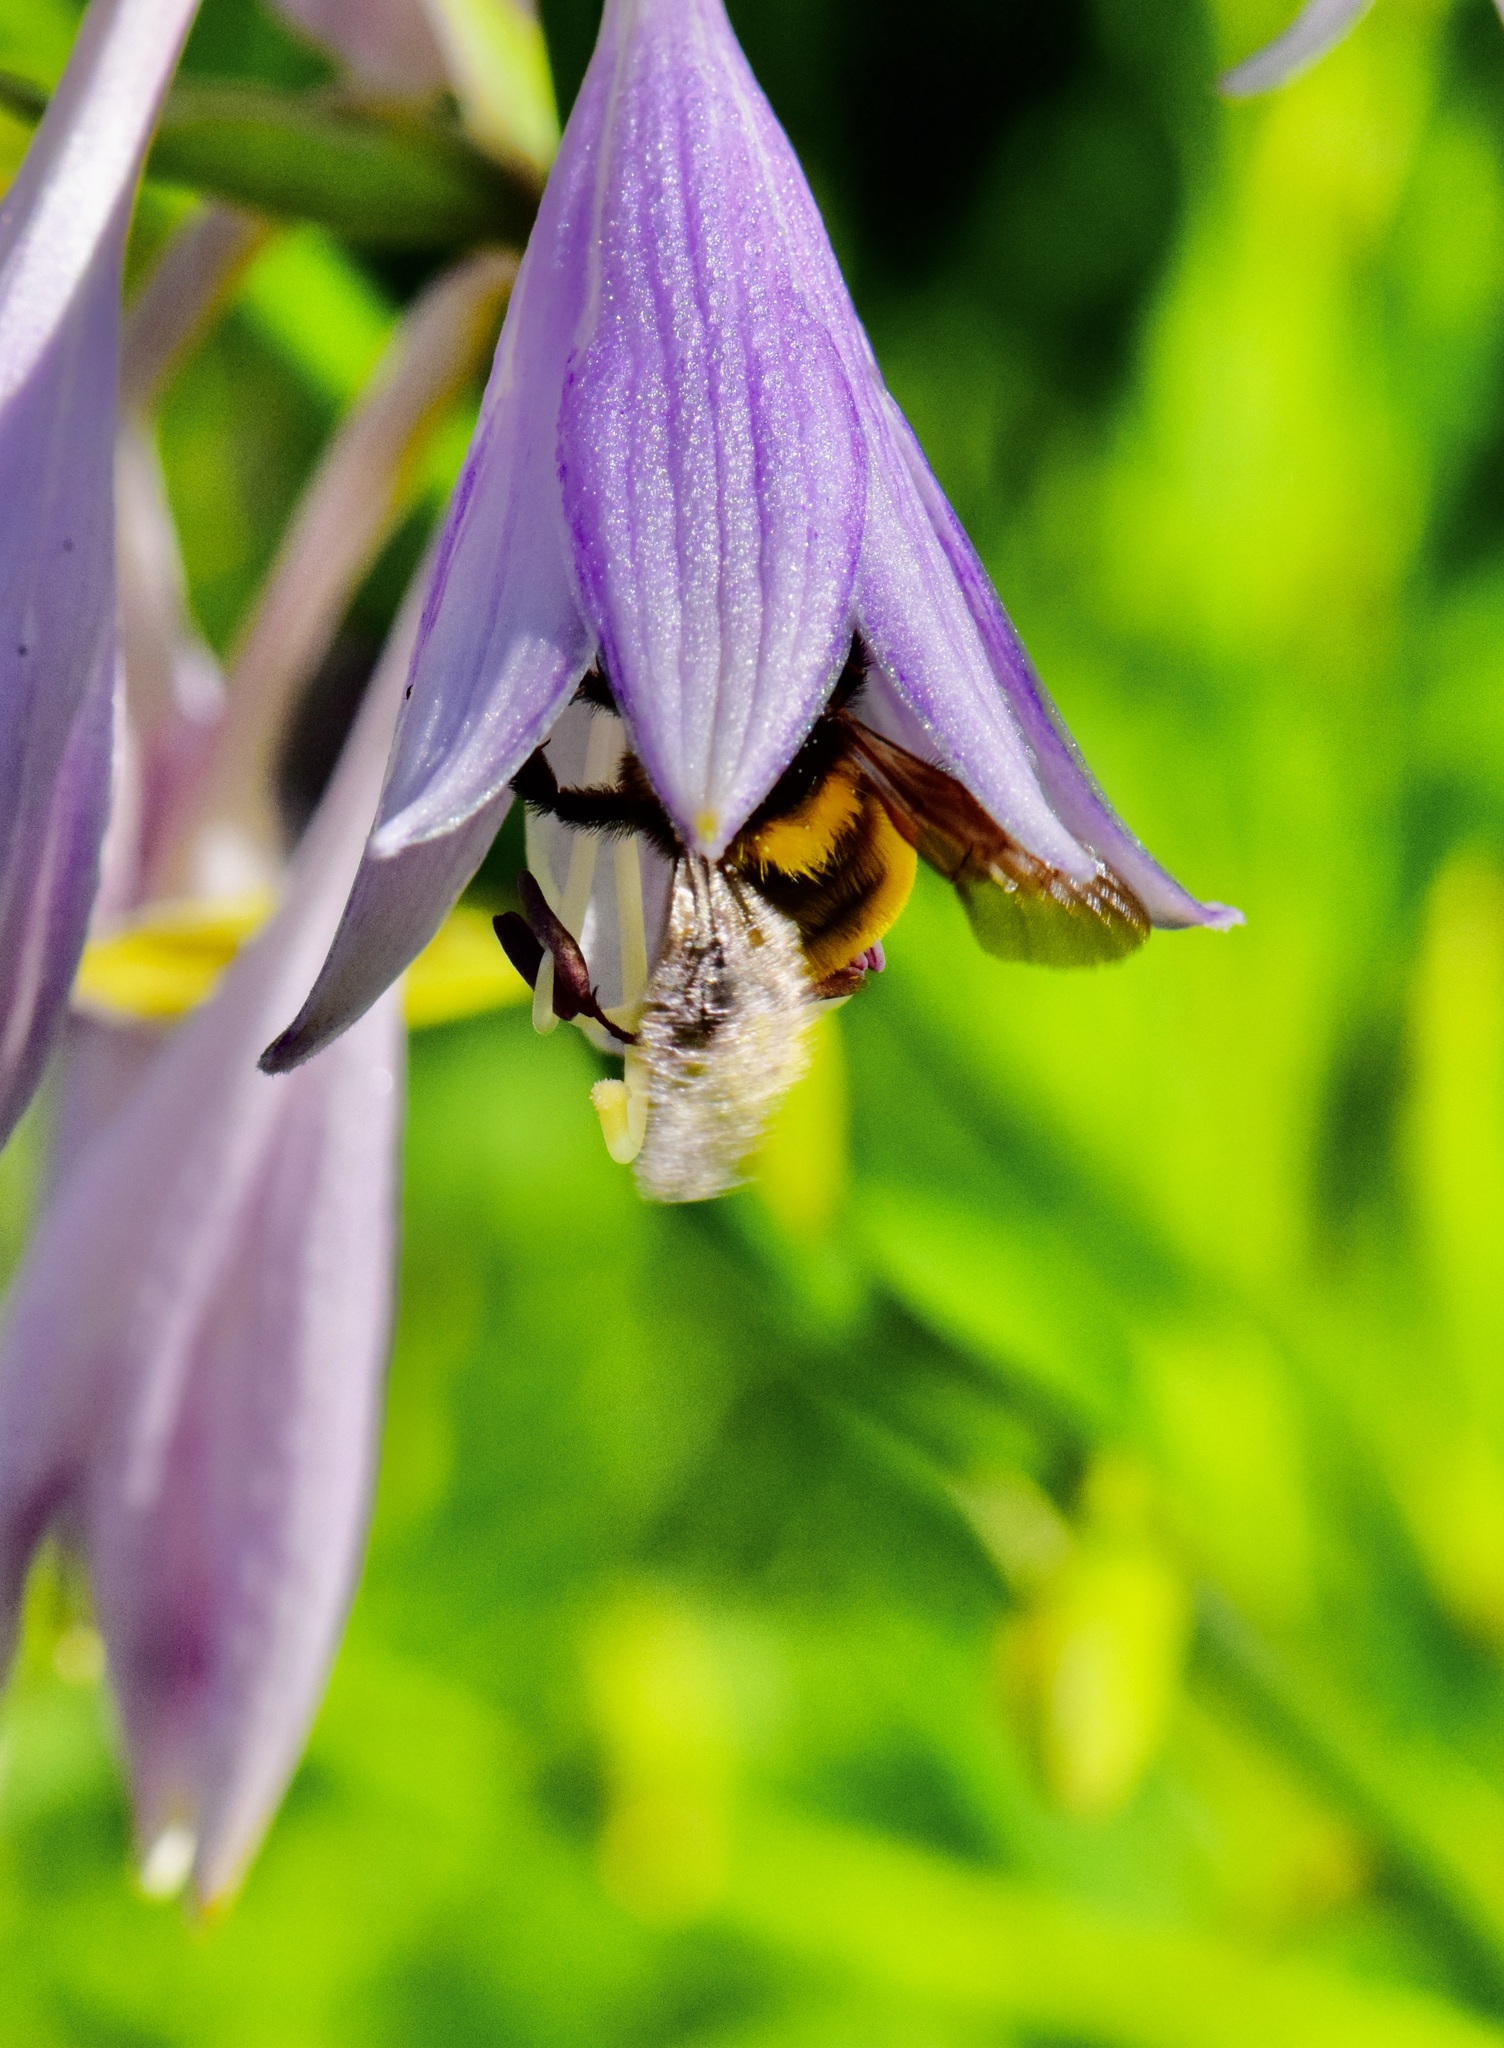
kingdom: Animalia
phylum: Arthropoda
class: Insecta
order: Hymenoptera
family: Apidae
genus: Bombus
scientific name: Bombus borealis
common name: Northern amber bumble bee
